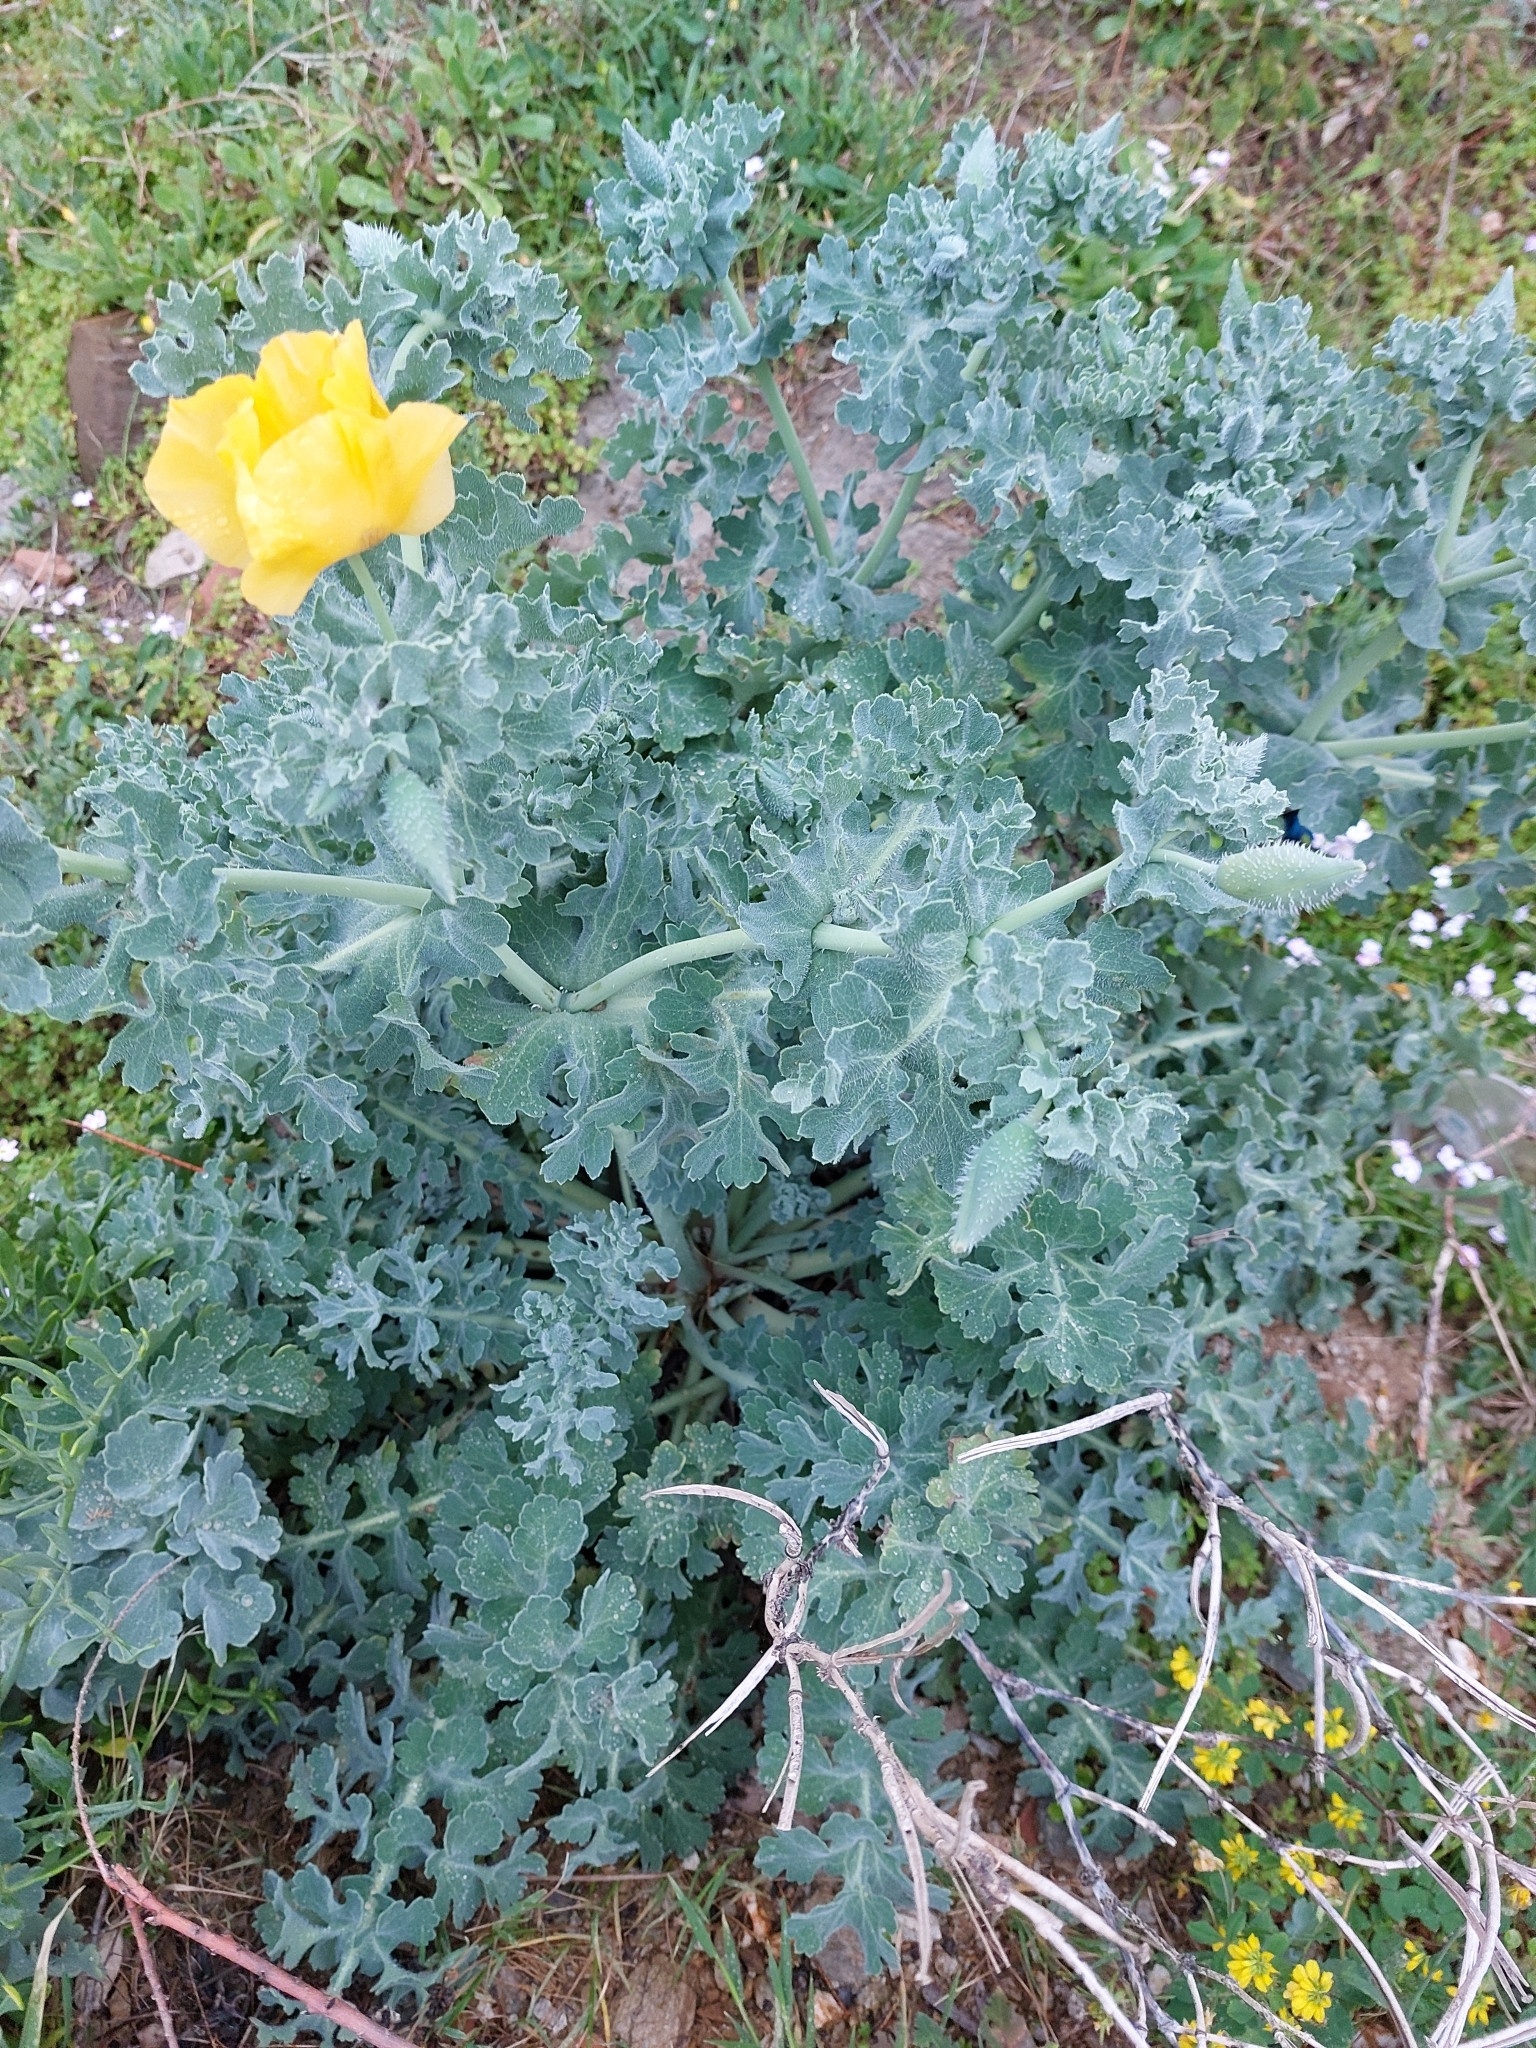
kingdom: Plantae
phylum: Tracheophyta
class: Magnoliopsida
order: Ranunculales
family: Papaveraceae
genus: Glaucium
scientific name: Glaucium flavum
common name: Yellow horned-poppy
